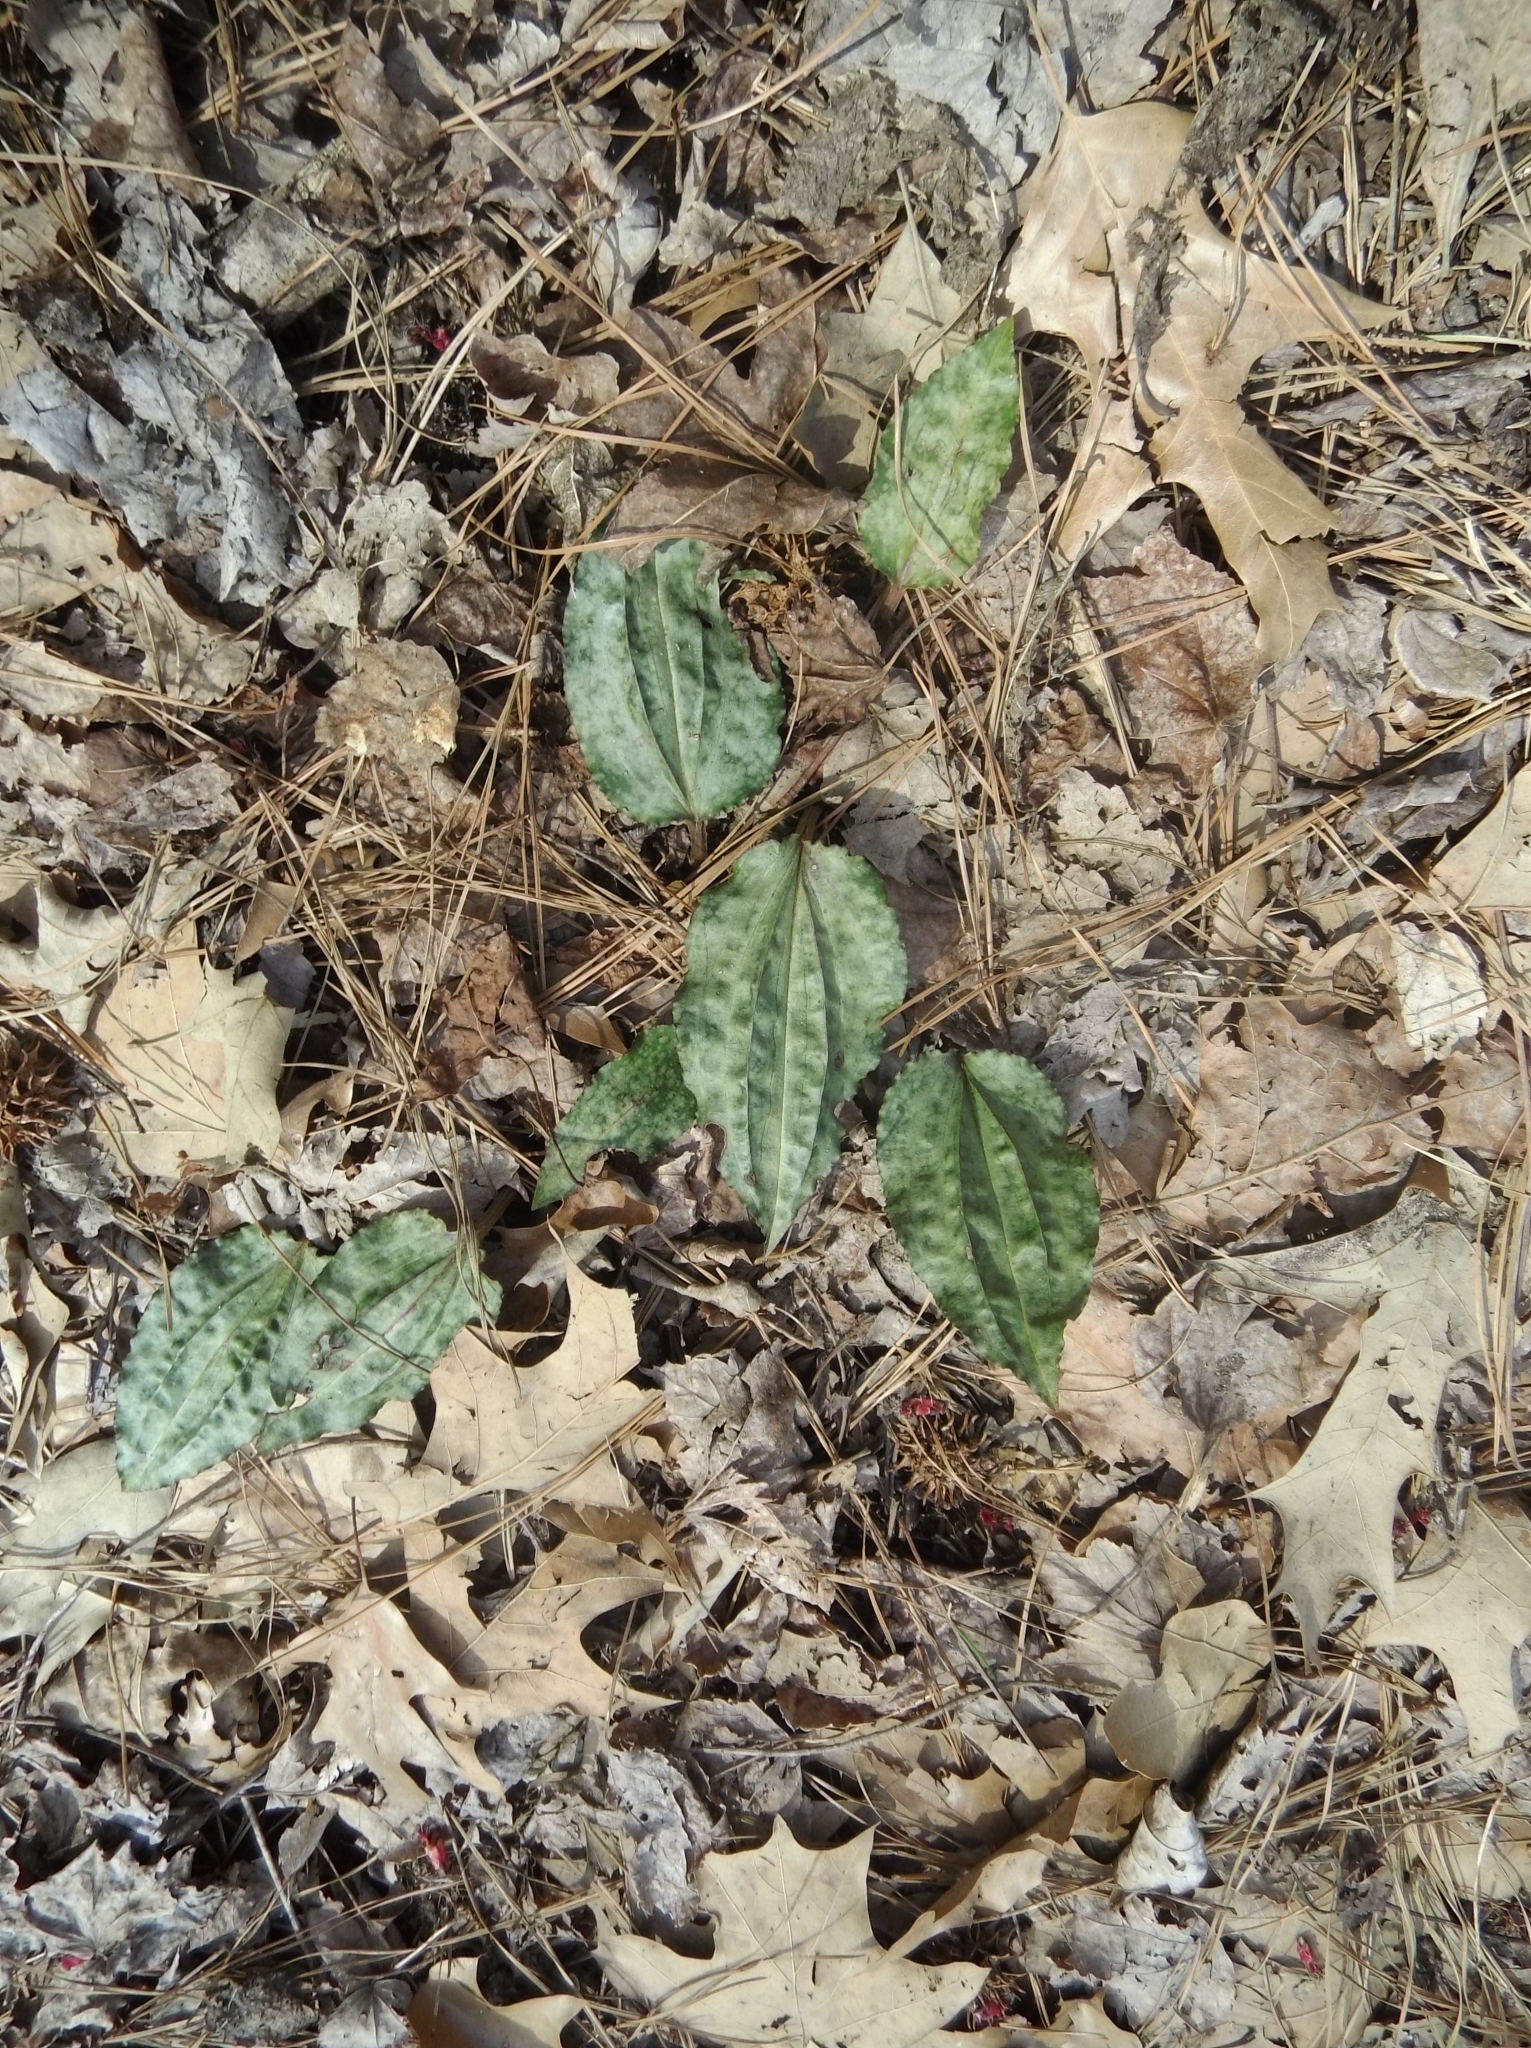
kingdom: Plantae
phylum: Tracheophyta
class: Liliopsida
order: Asparagales
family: Orchidaceae
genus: Tipularia
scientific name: Tipularia discolor
